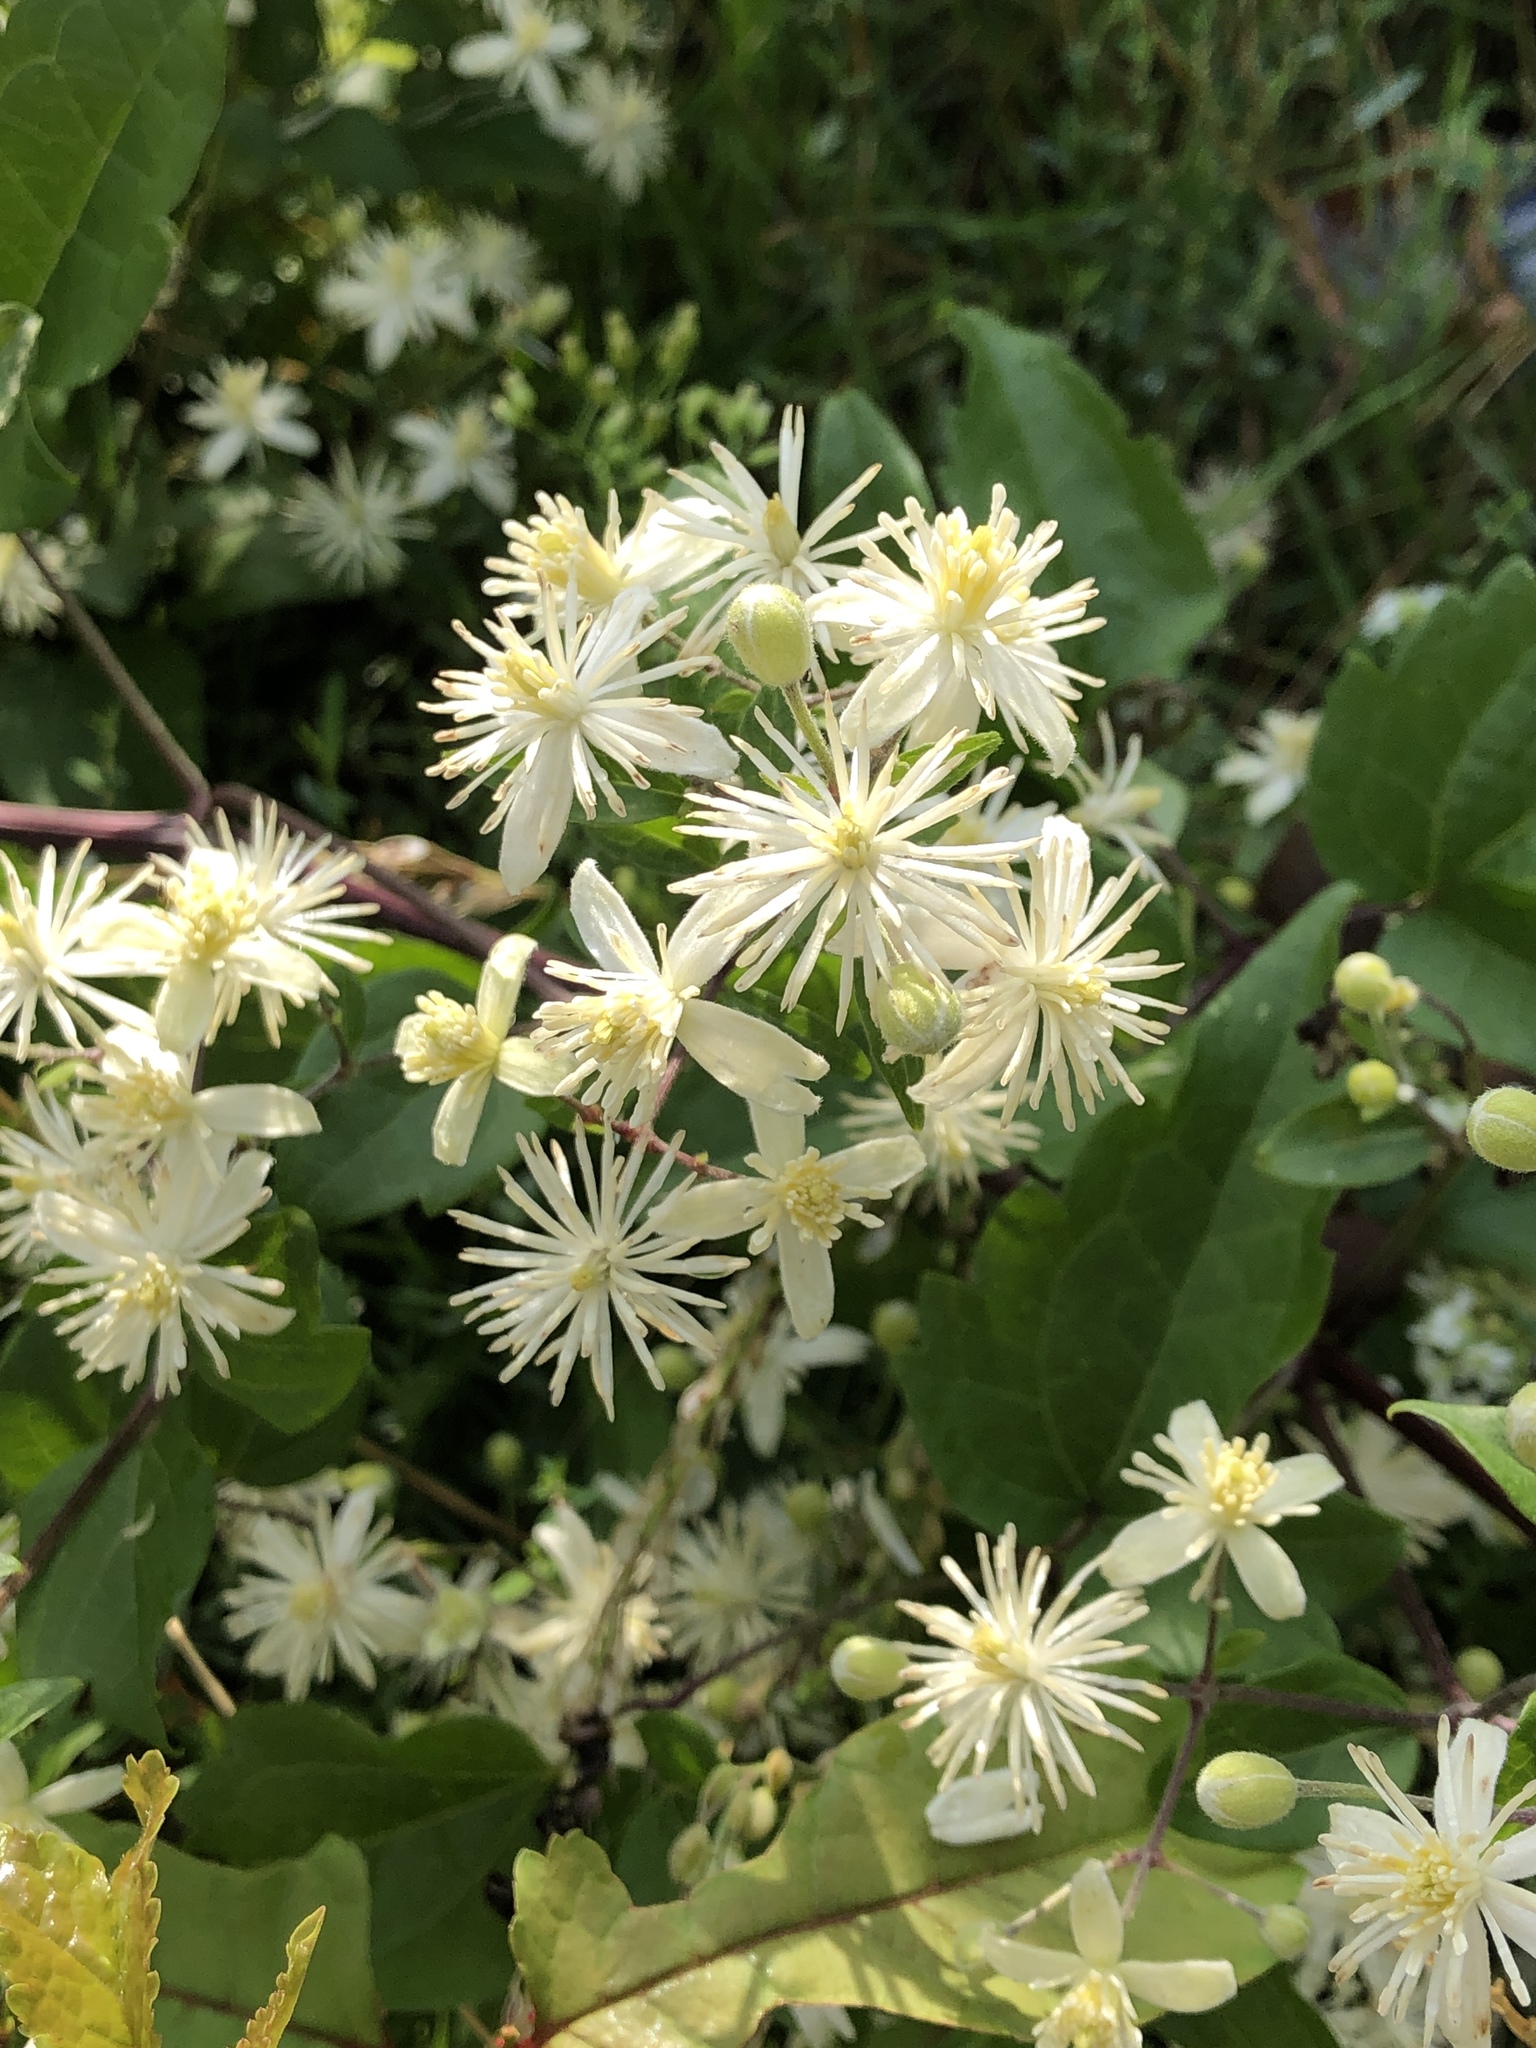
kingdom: Plantae
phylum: Tracheophyta
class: Magnoliopsida
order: Ranunculales
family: Ranunculaceae
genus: Clematis
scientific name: Clematis vitalba
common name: Evergreen clematis
